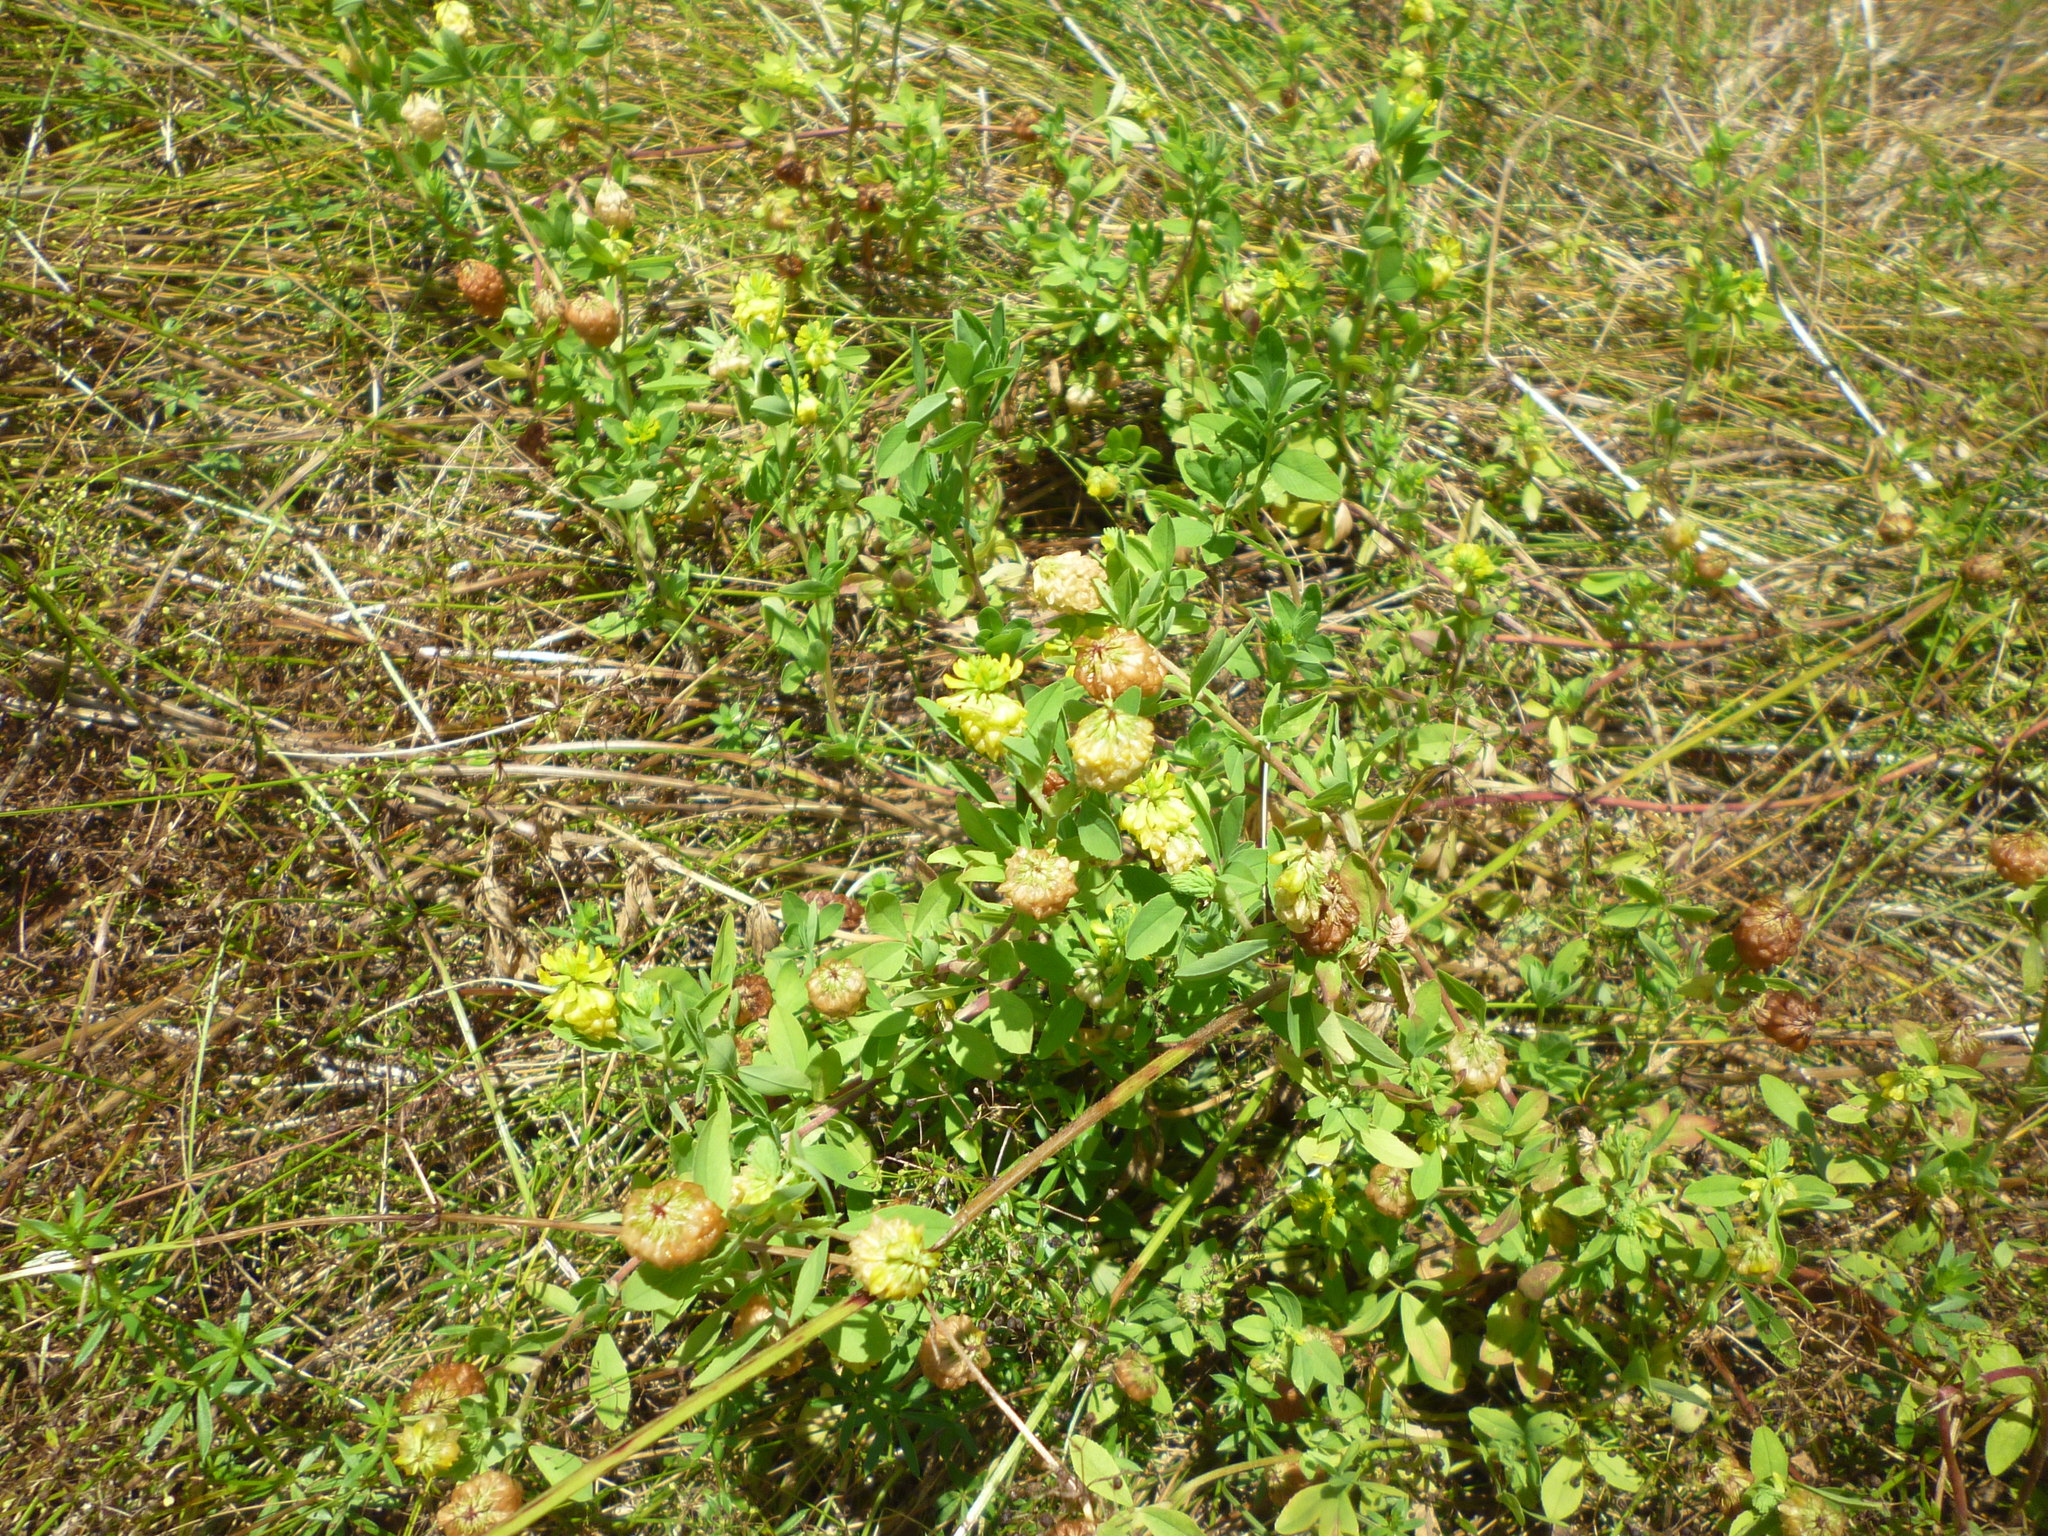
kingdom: Plantae
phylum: Tracheophyta
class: Magnoliopsida
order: Fabales
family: Fabaceae
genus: Trifolium
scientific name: Trifolium aureum
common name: Golden clover
